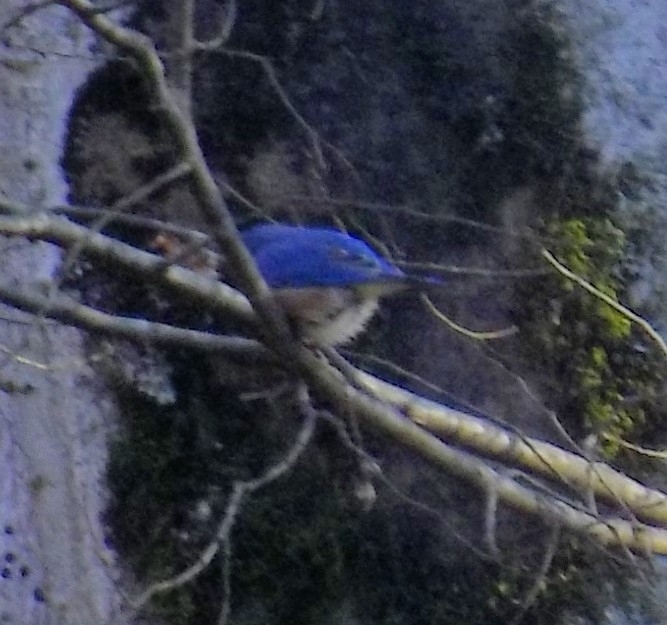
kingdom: Animalia
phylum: Chordata
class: Aves
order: Passeriformes
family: Turdidae
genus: Sialia
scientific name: Sialia sialis
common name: Eastern bluebird
